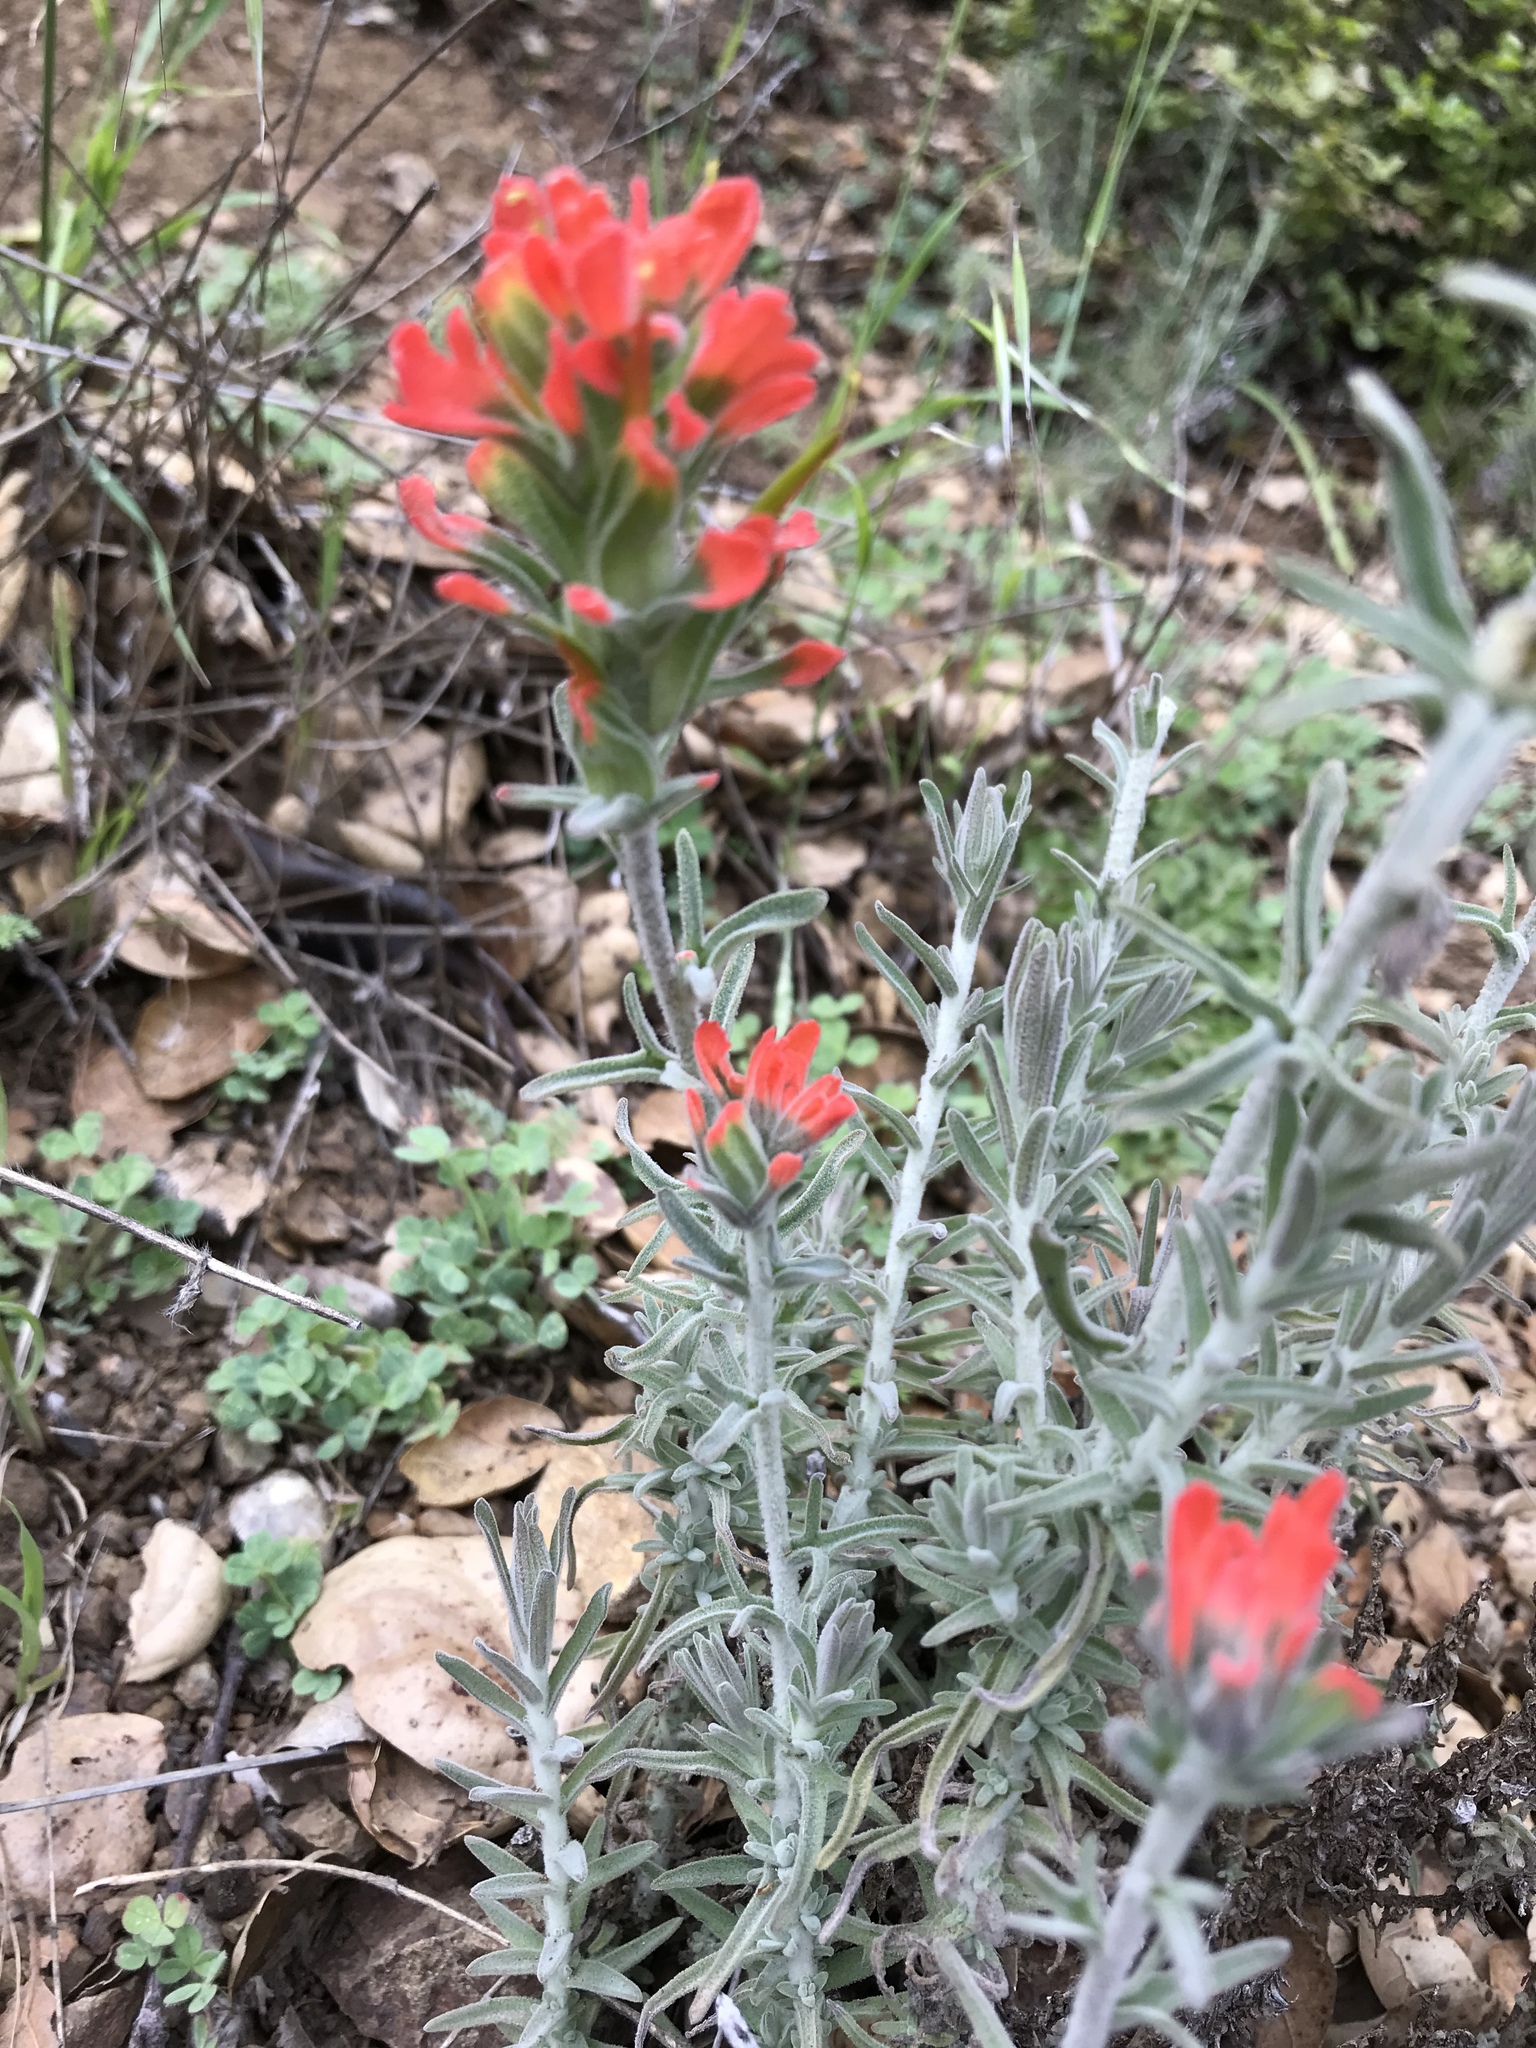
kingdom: Plantae
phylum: Tracheophyta
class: Magnoliopsida
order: Lamiales
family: Orobanchaceae
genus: Castilleja
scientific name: Castilleja foliolosa
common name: Woolly indian paintbrush
